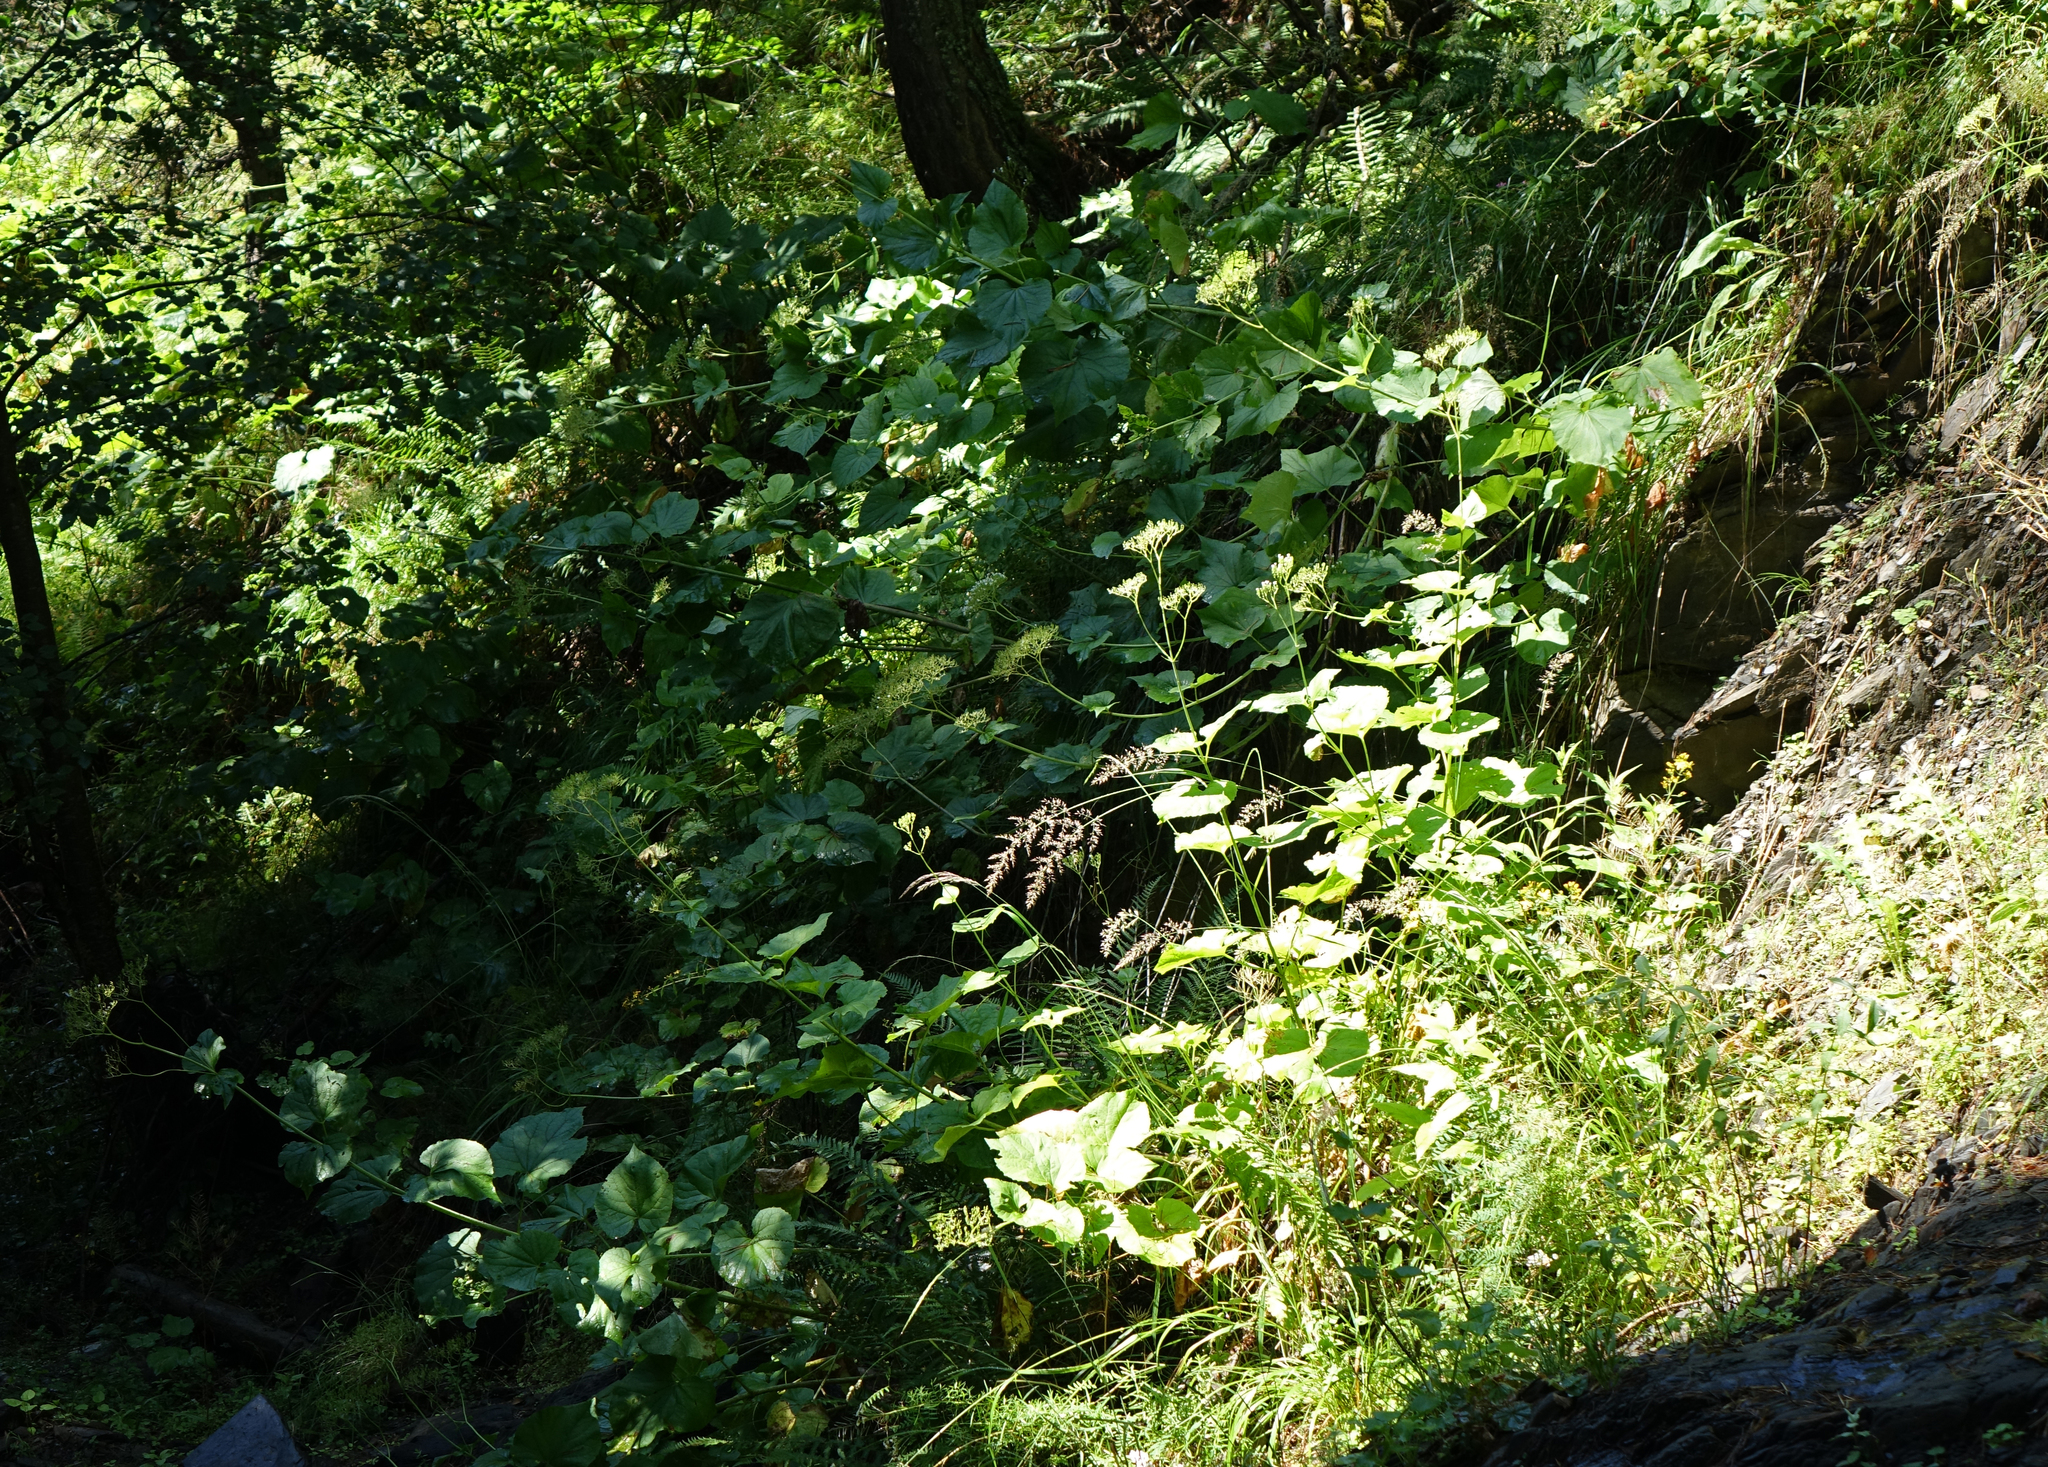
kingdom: Plantae
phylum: Tracheophyta
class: Magnoliopsida
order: Dipsacales
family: Caprifoliaceae
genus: Valeriana
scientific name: Valeriana alliariifolia
